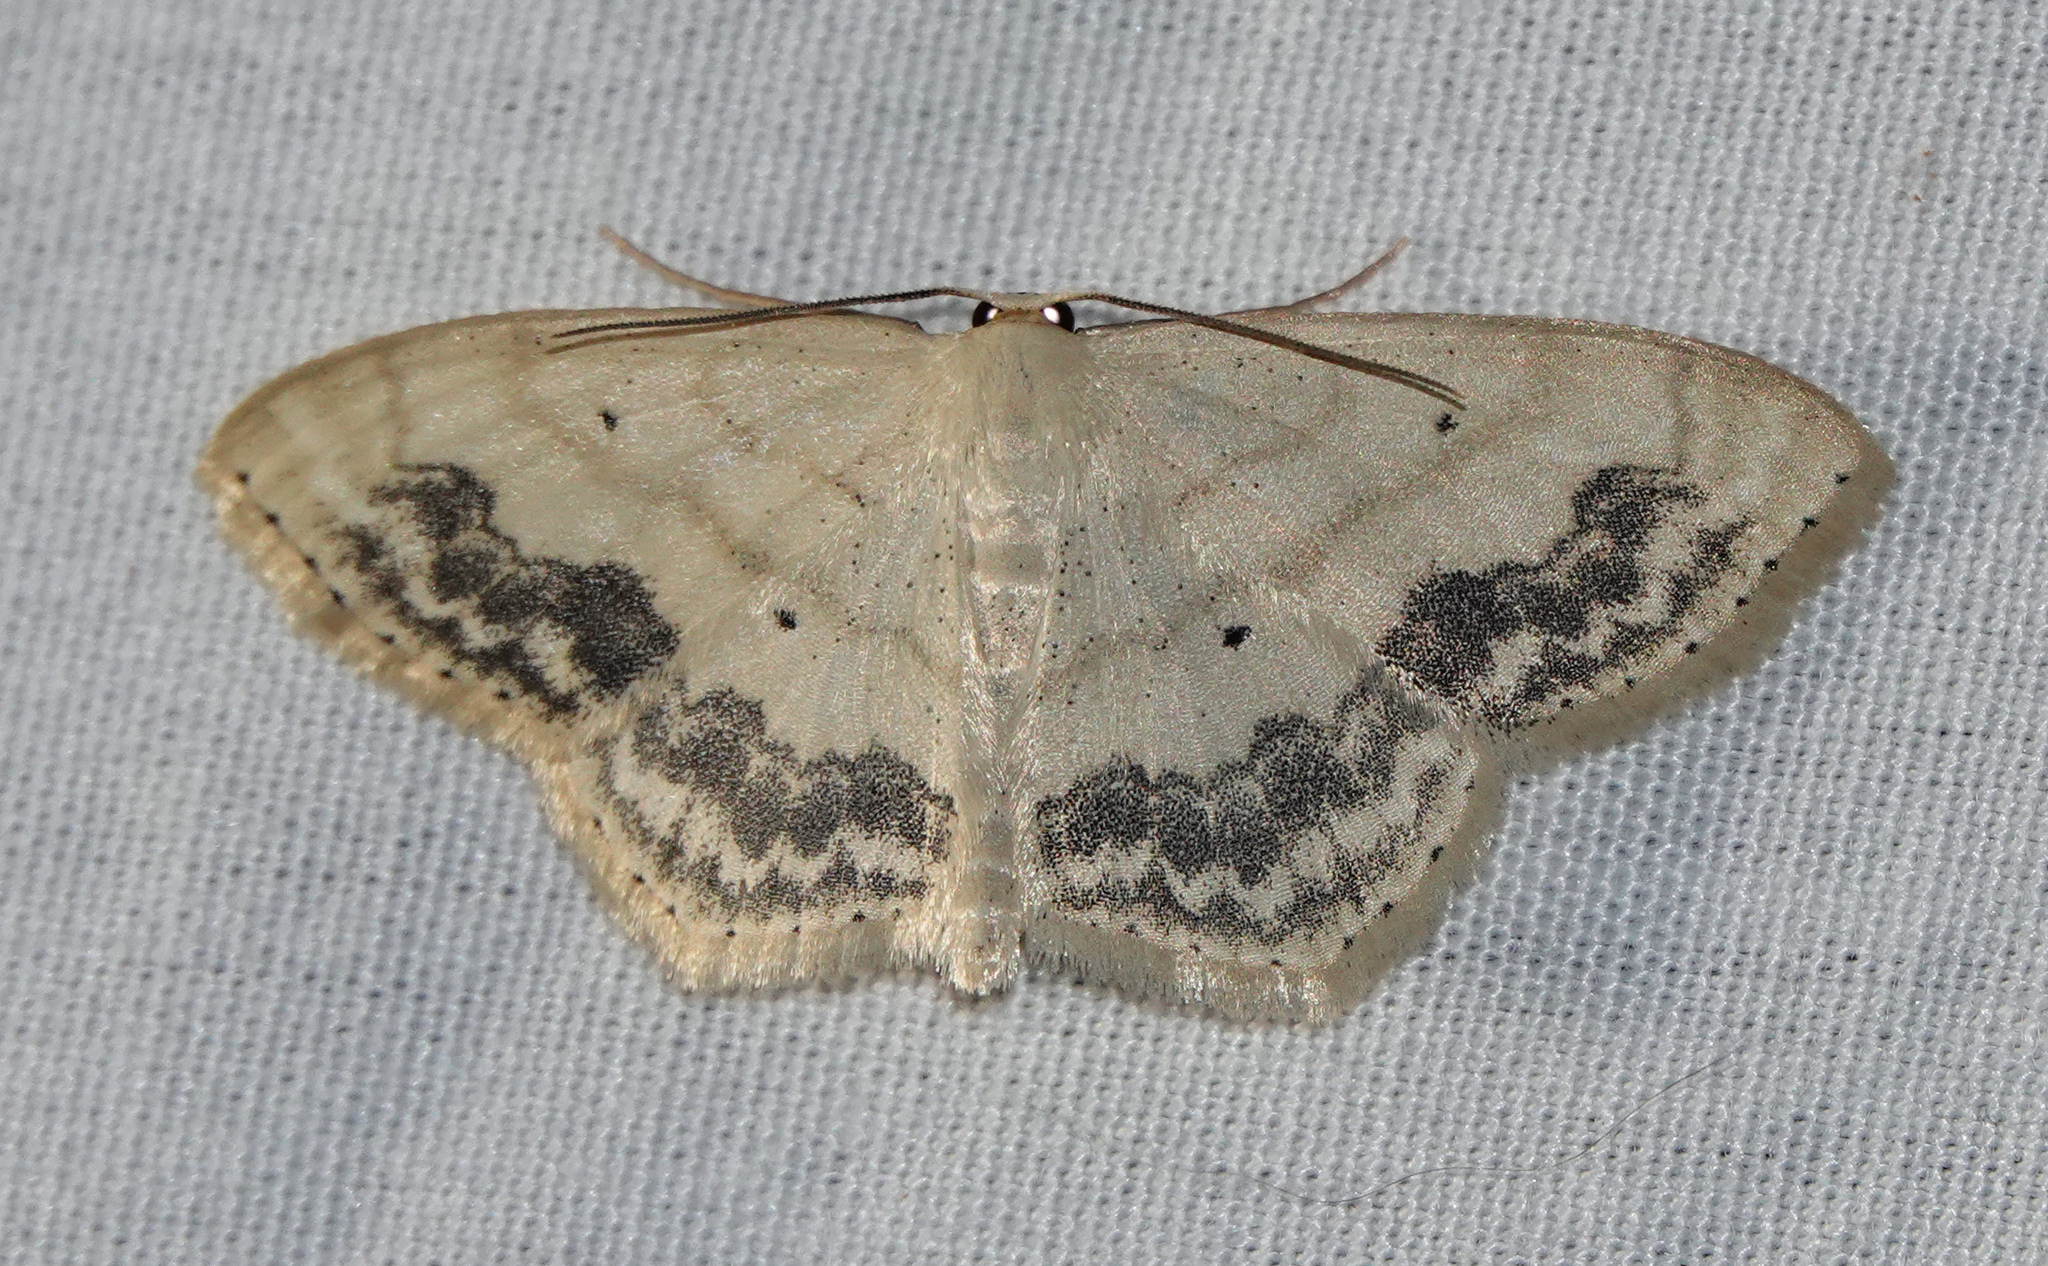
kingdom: Animalia
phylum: Arthropoda
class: Insecta
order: Lepidoptera
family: Geometridae
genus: Scopula
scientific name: Scopula limboundata
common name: Large lace border
